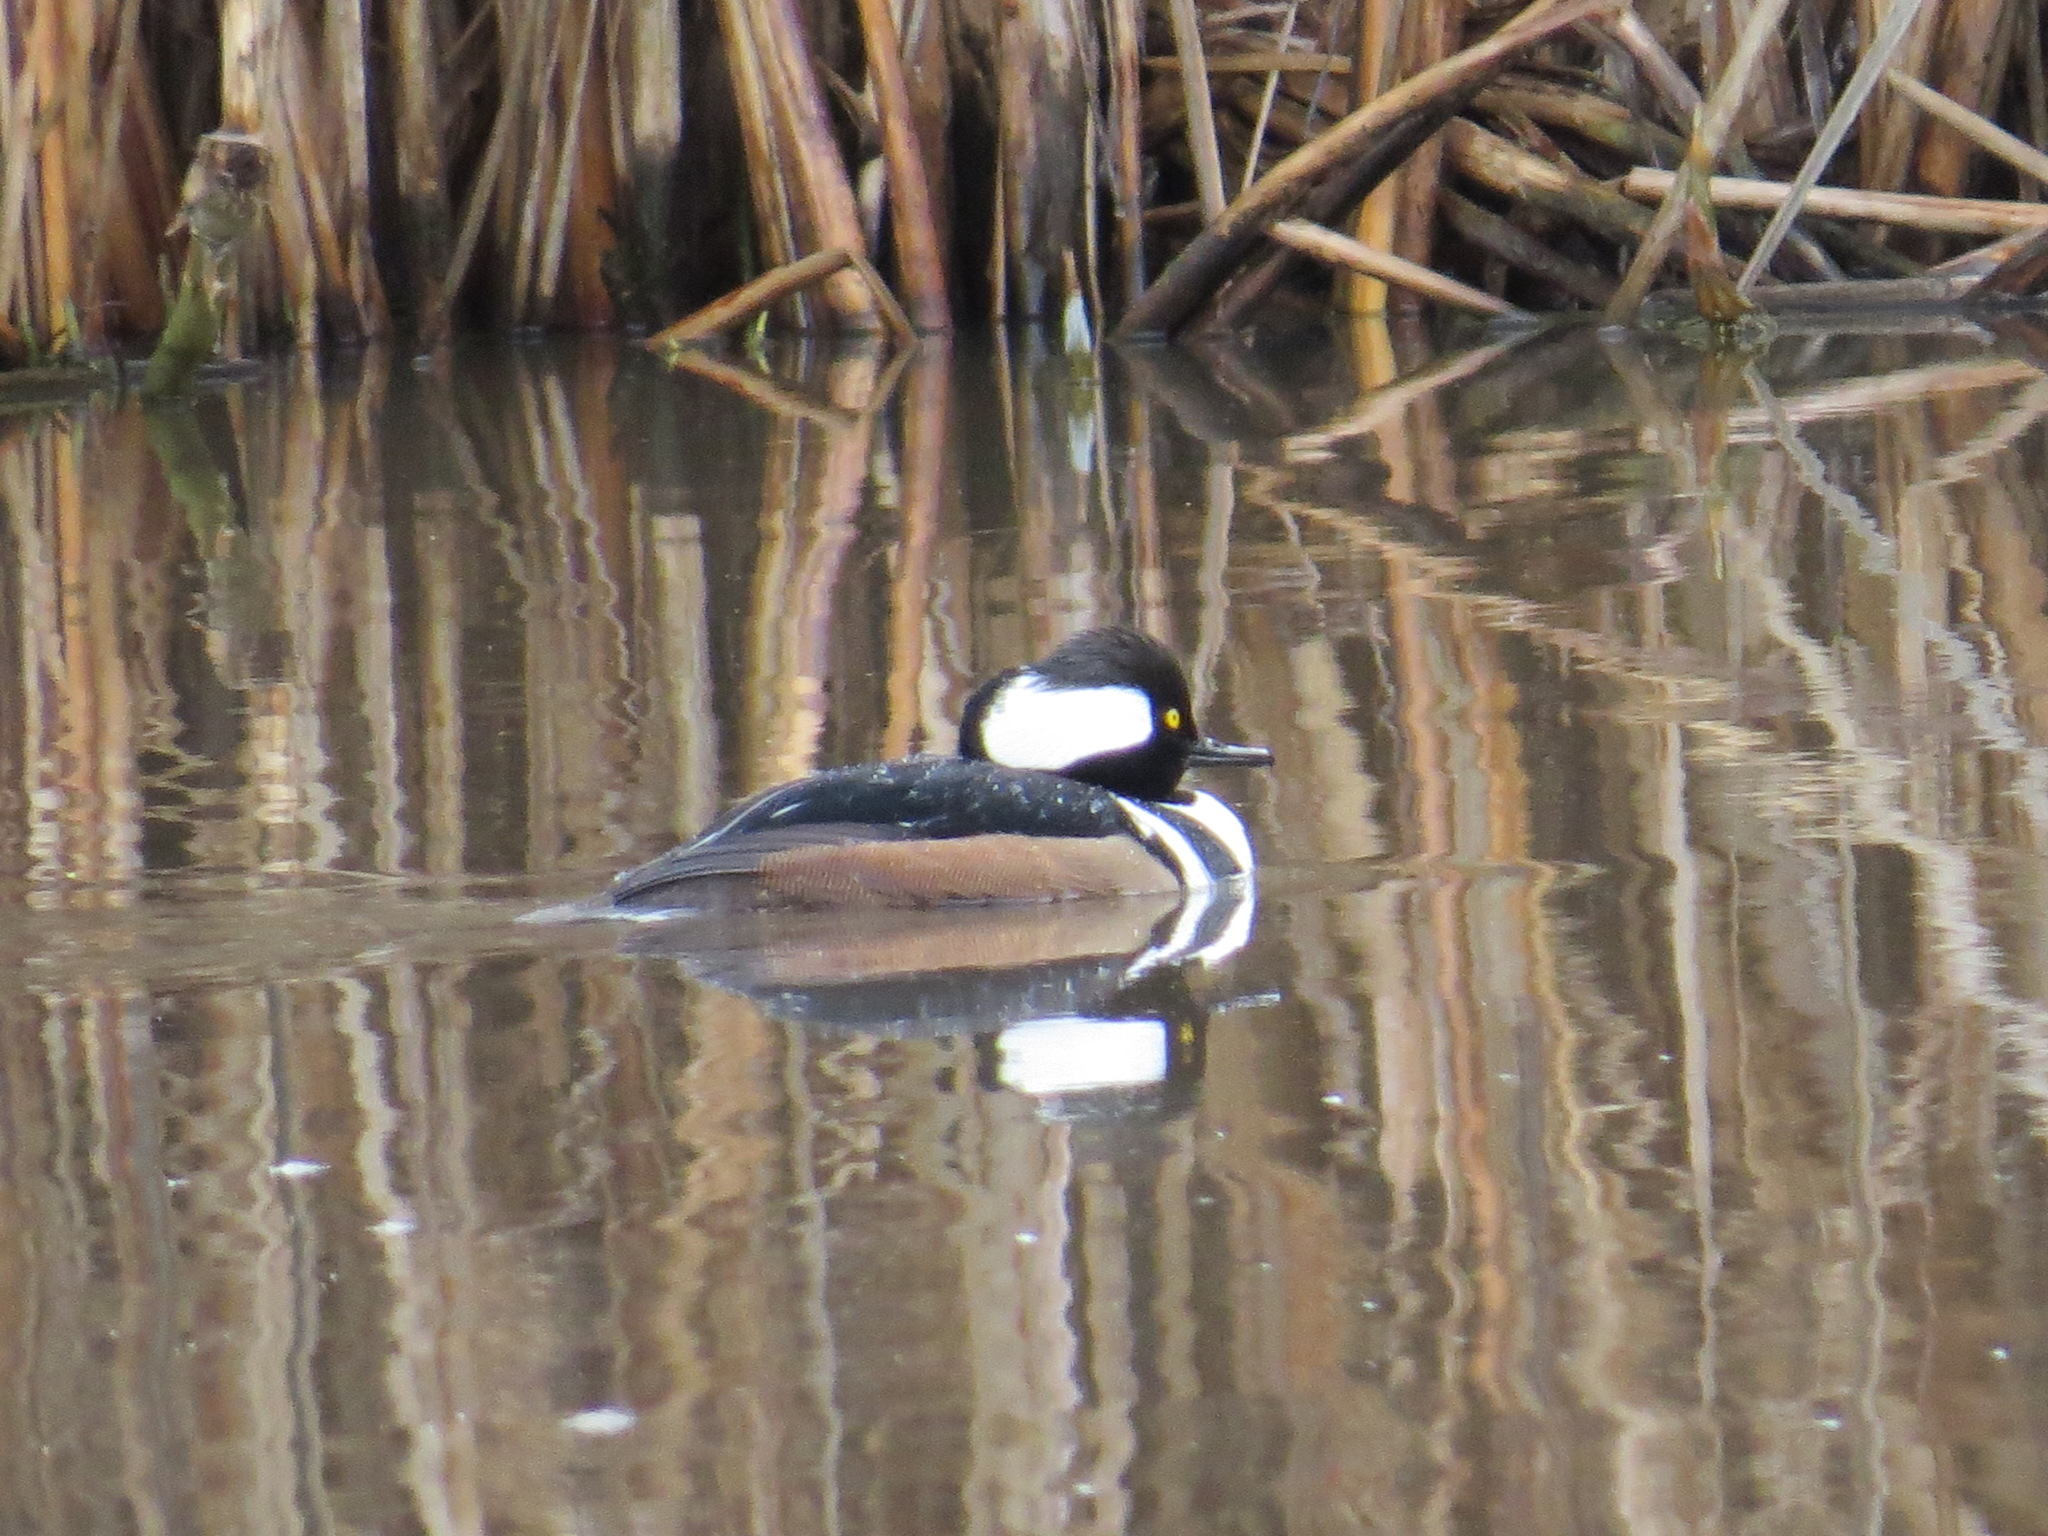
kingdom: Animalia
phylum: Chordata
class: Aves
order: Anseriformes
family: Anatidae
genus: Lophodytes
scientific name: Lophodytes cucullatus
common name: Hooded merganser
